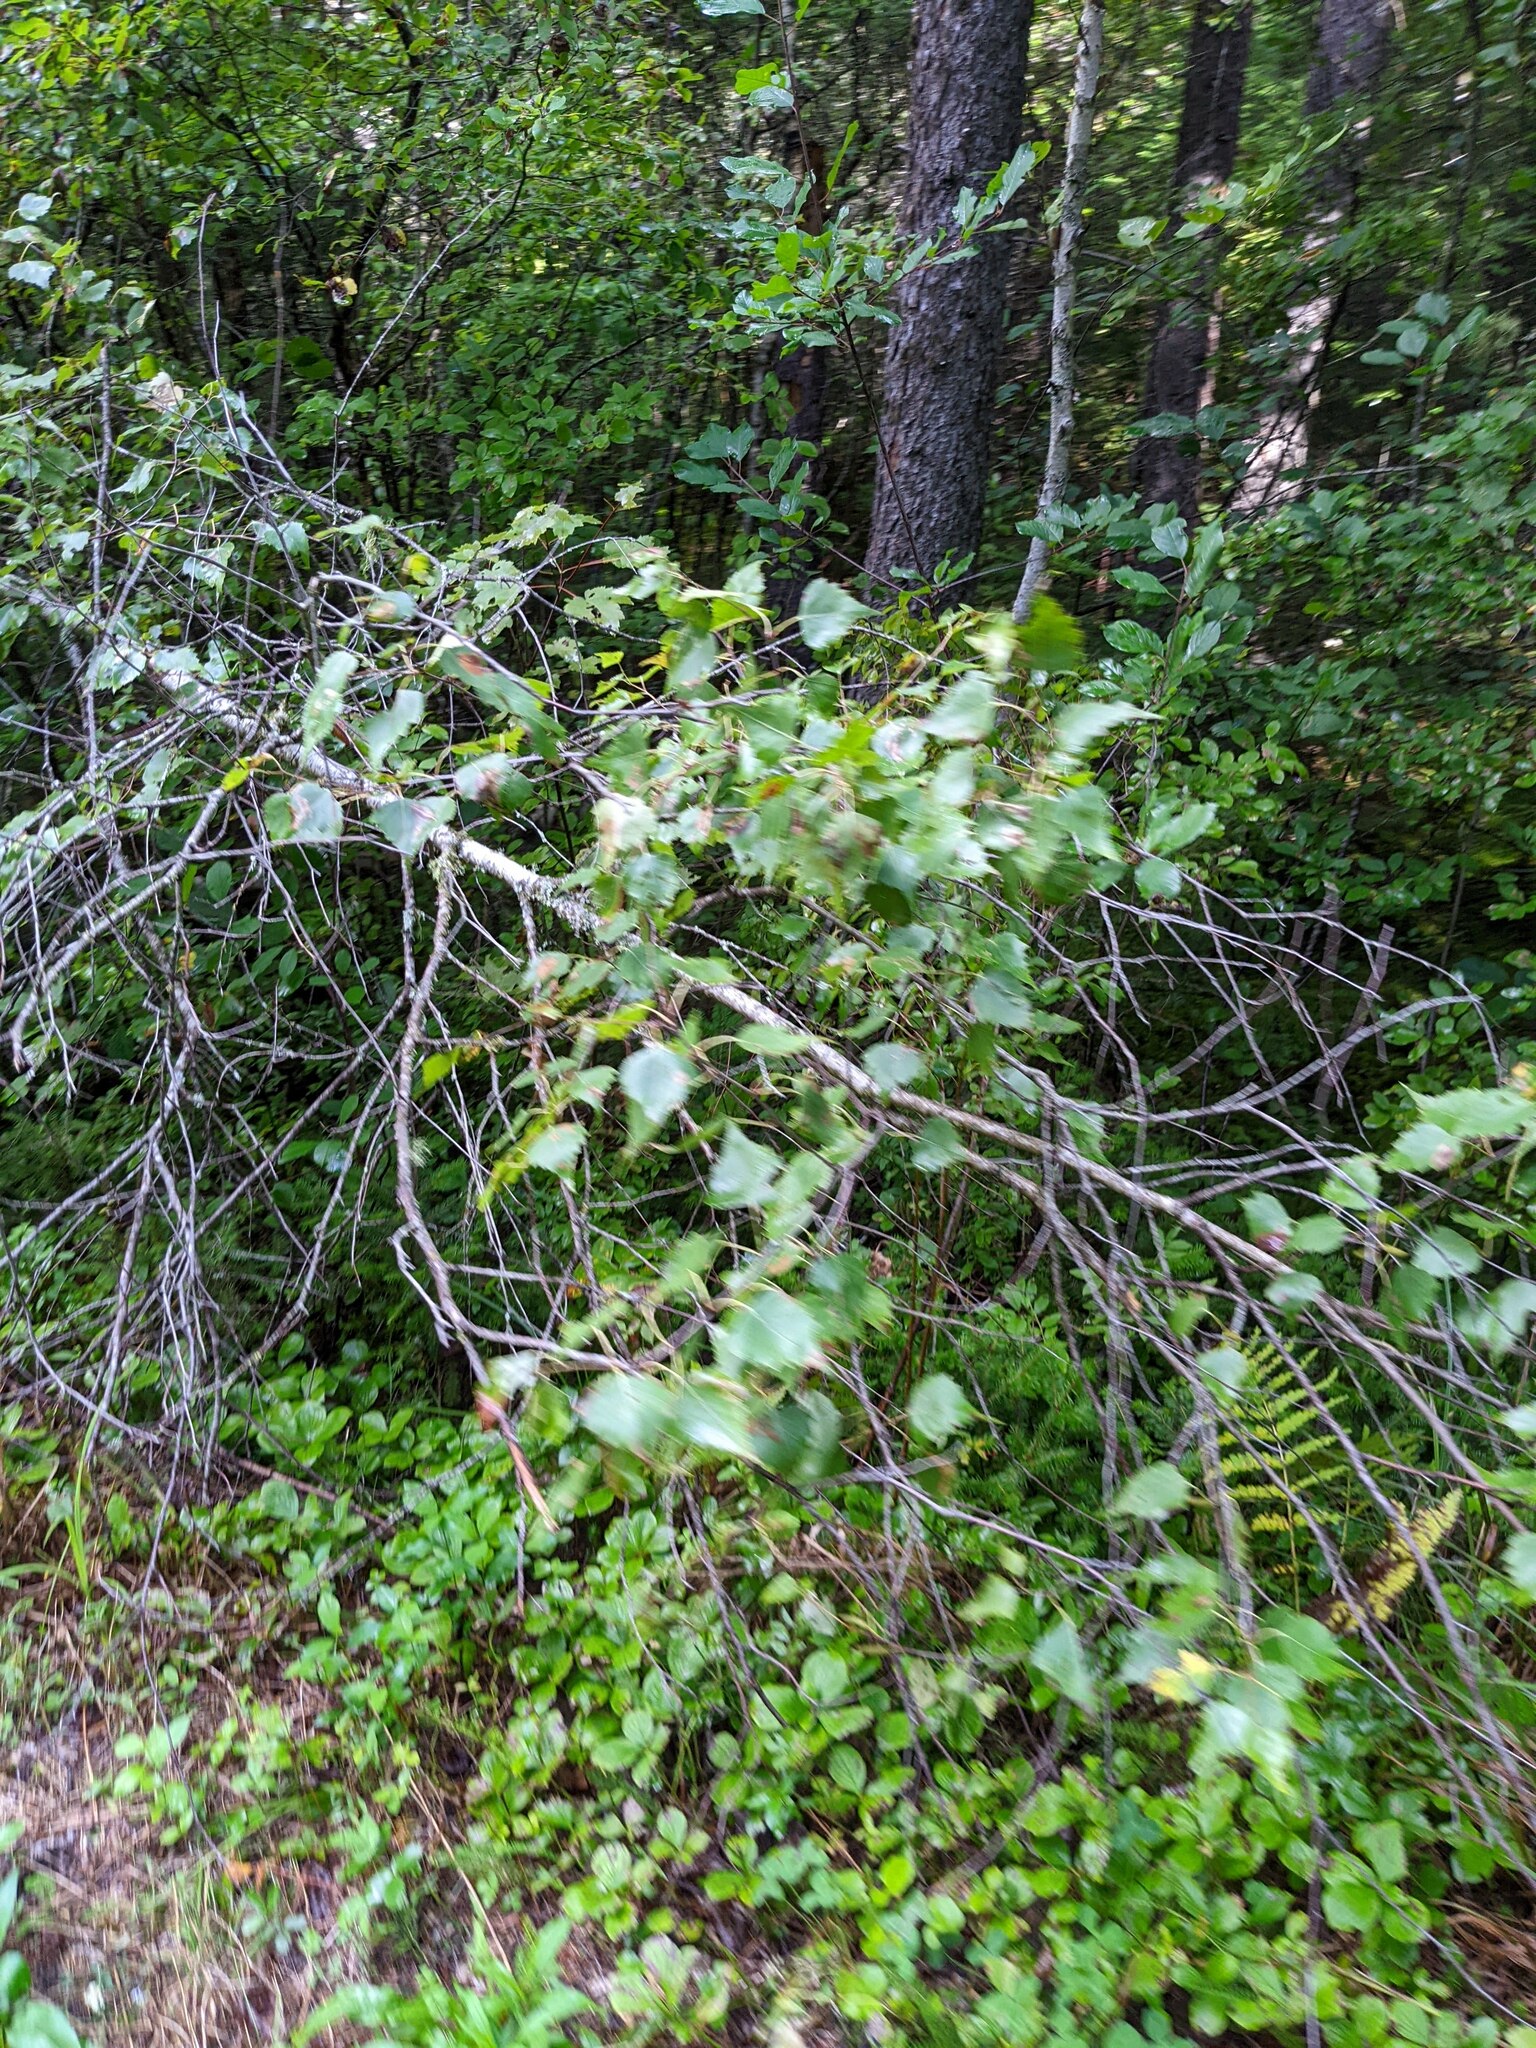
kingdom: Plantae
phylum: Tracheophyta
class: Magnoliopsida
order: Fagales
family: Betulaceae
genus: Betula
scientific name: Betula populifolia
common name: Fire birch
